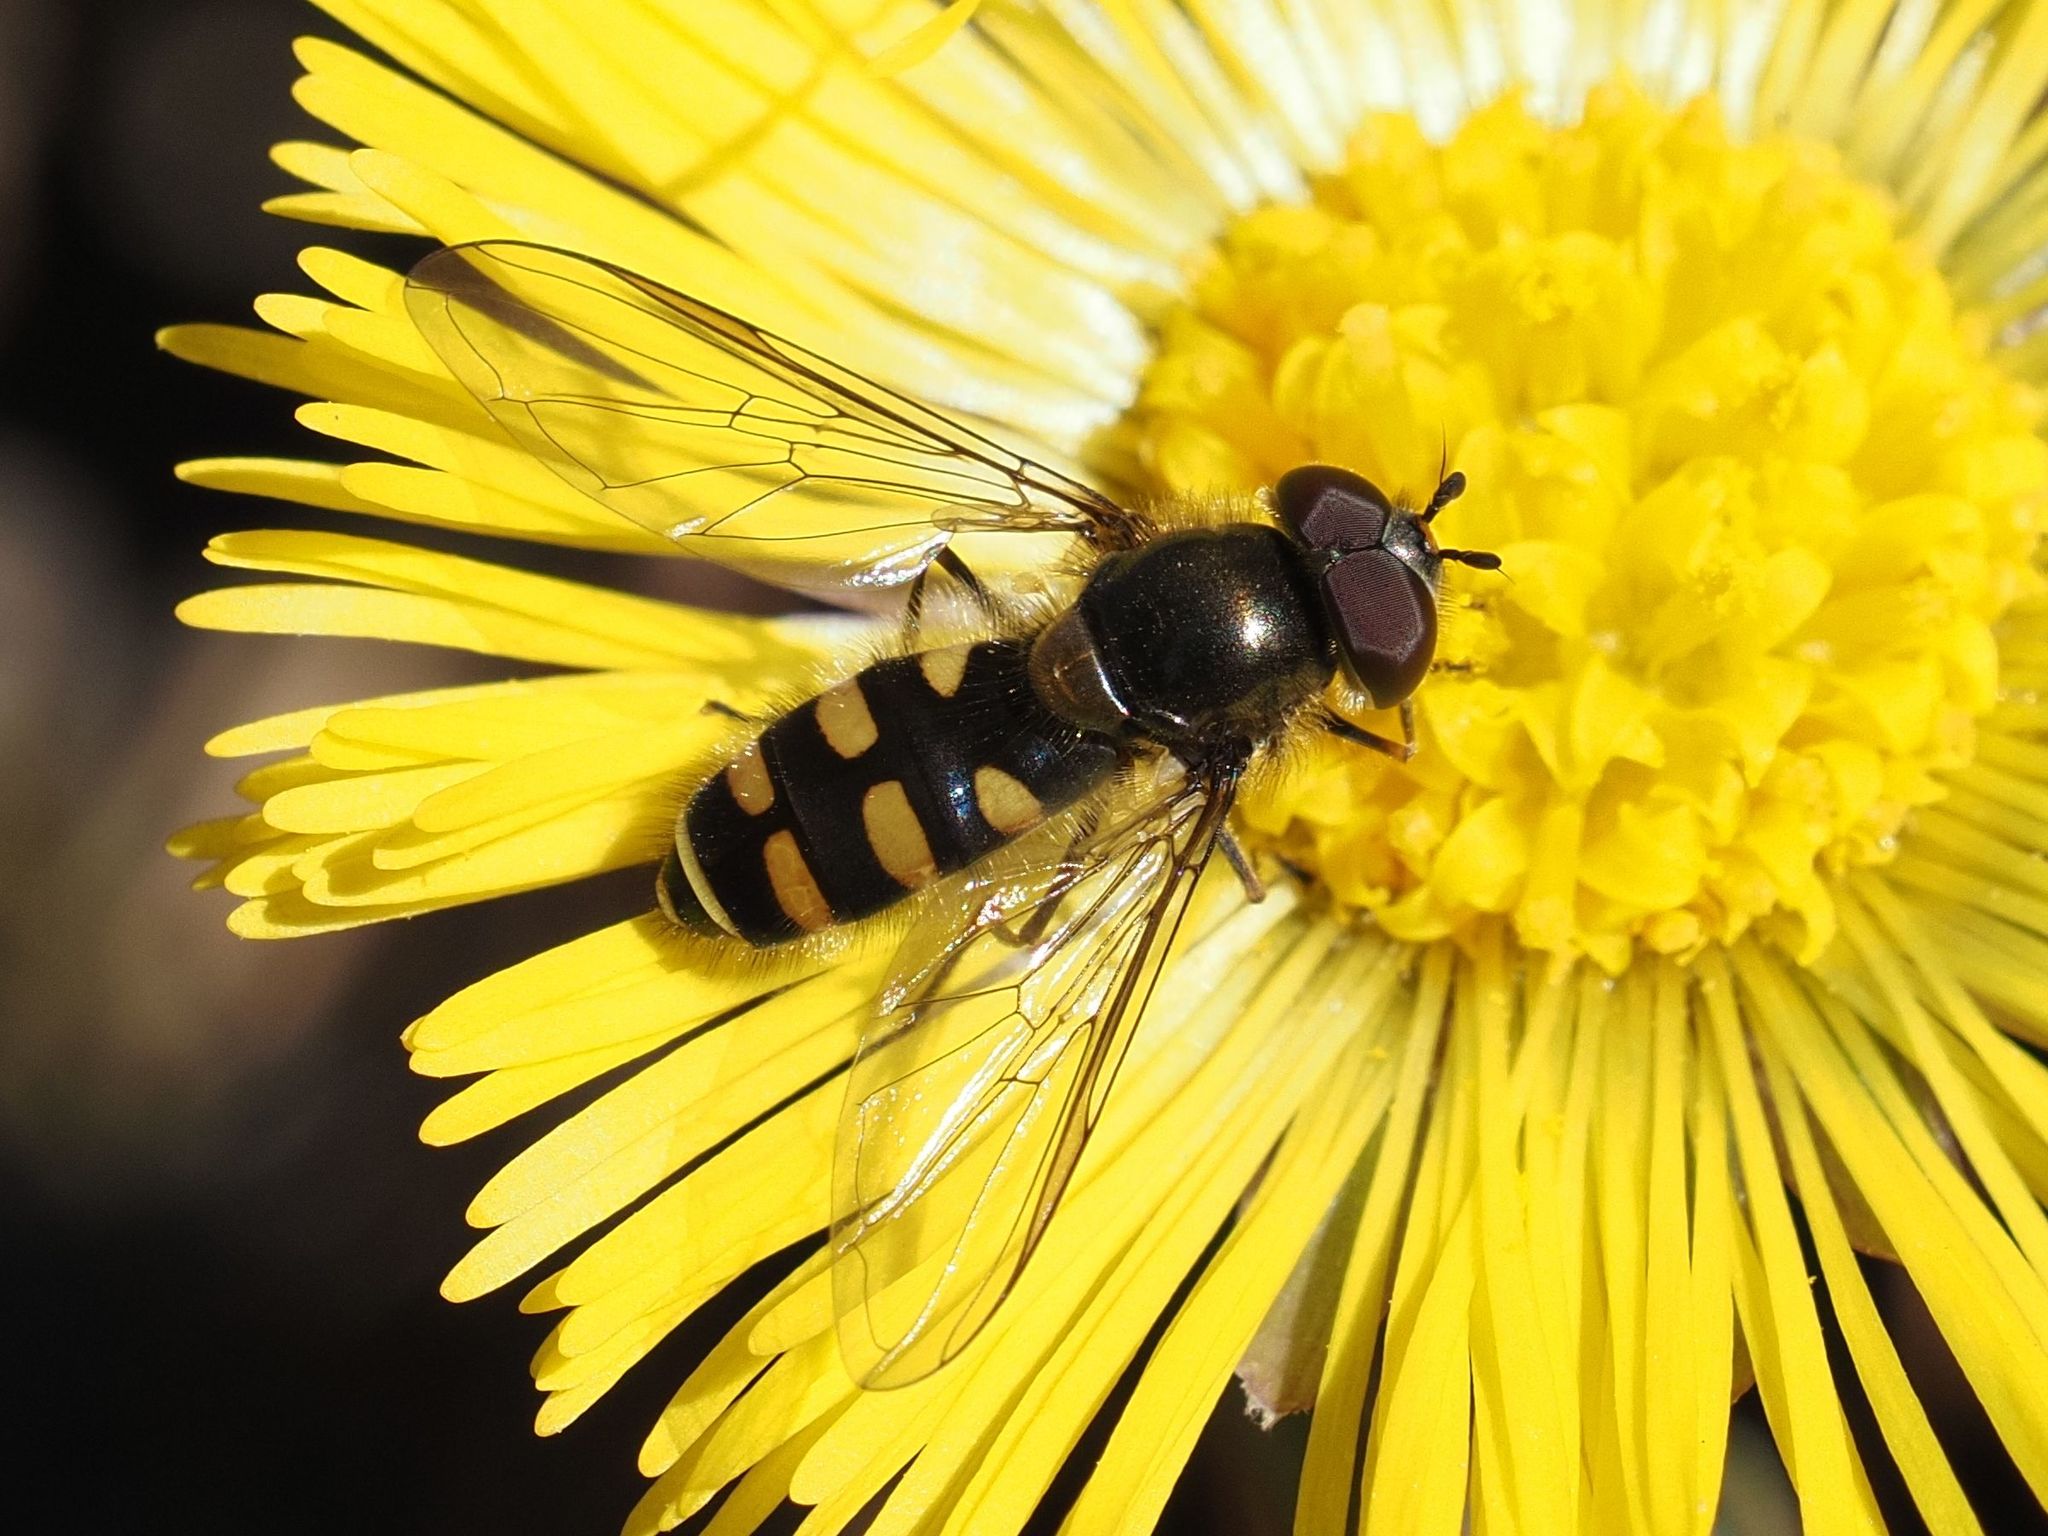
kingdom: Animalia
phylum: Arthropoda
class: Insecta
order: Diptera
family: Syrphidae
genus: Melangyna
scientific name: Melangyna lasiophthalma
